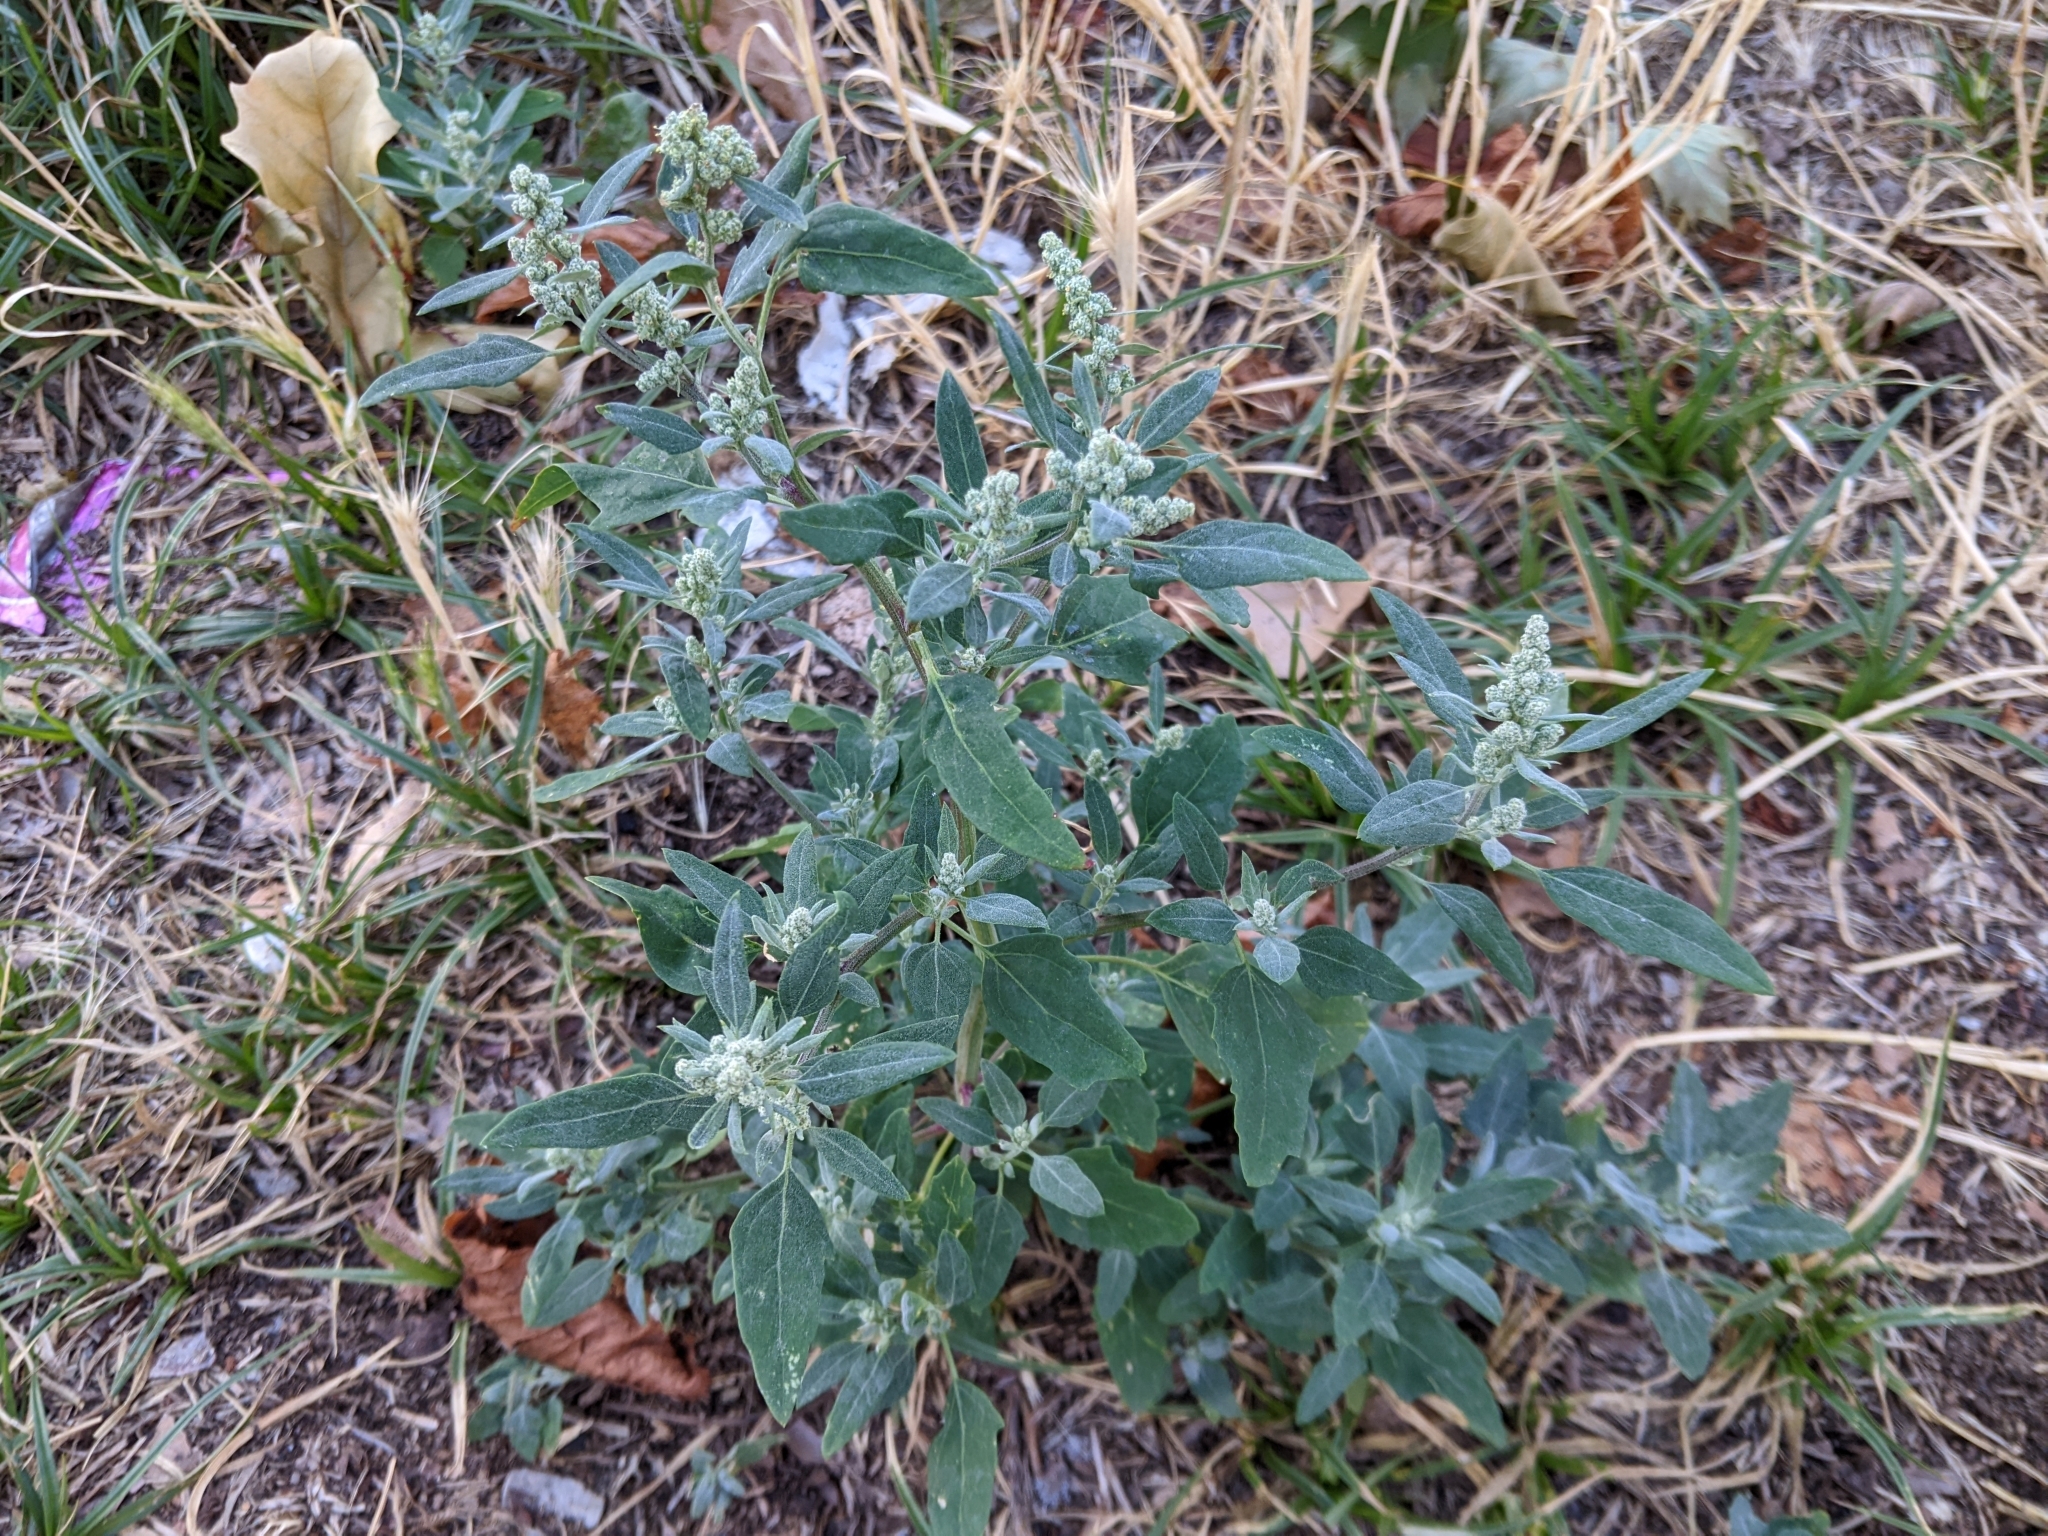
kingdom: Plantae
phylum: Tracheophyta
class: Magnoliopsida
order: Caryophyllales
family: Amaranthaceae
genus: Chenopodium
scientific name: Chenopodium album
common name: Fat-hen
